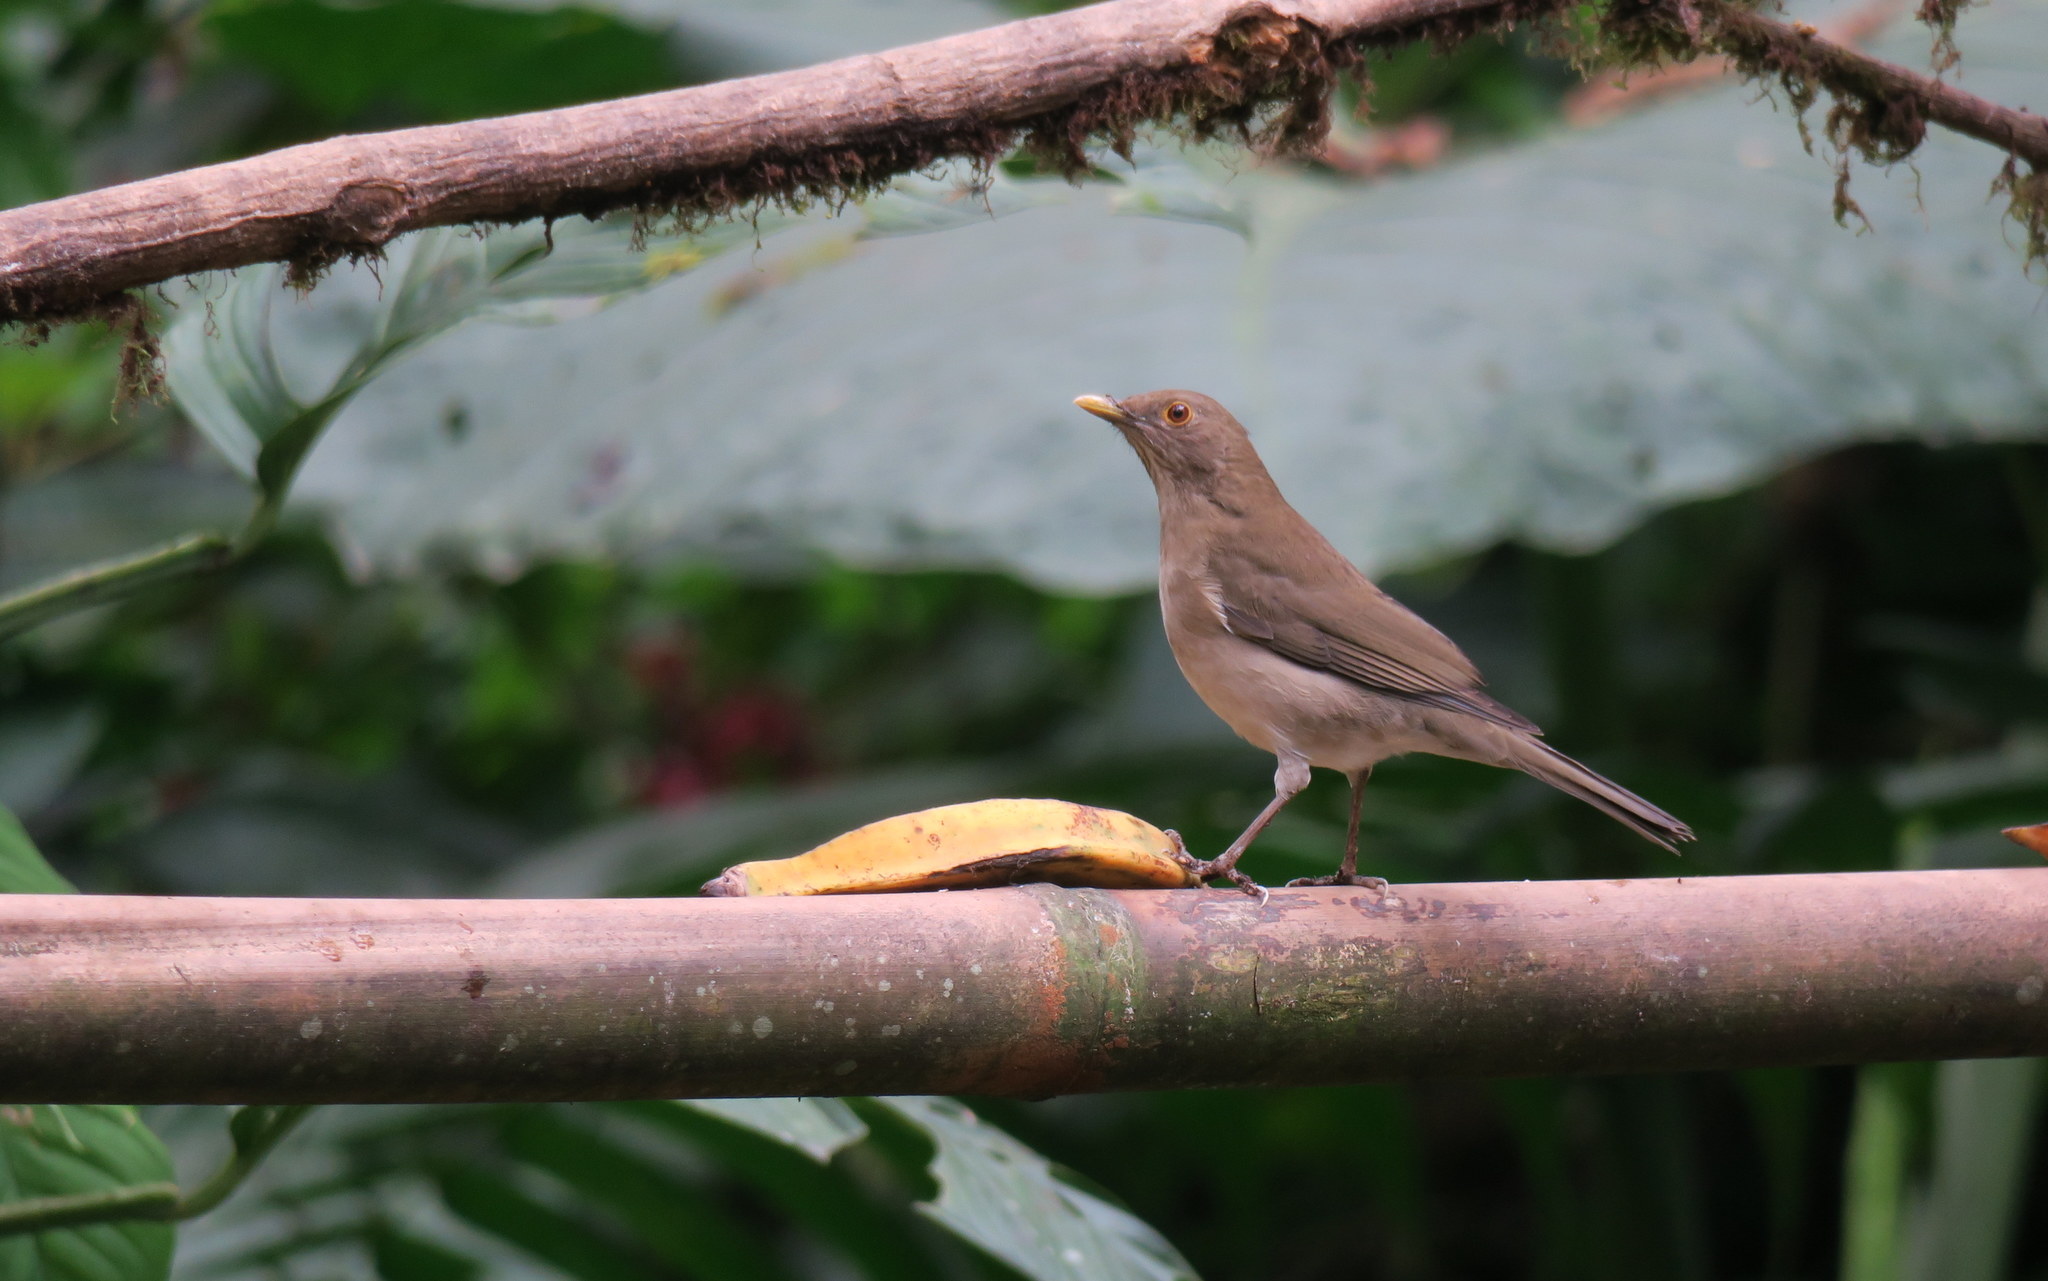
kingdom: Animalia
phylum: Chordata
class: Aves
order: Passeriformes
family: Turdidae
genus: Turdus
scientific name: Turdus maculirostris
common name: Ecuadorian thrush
